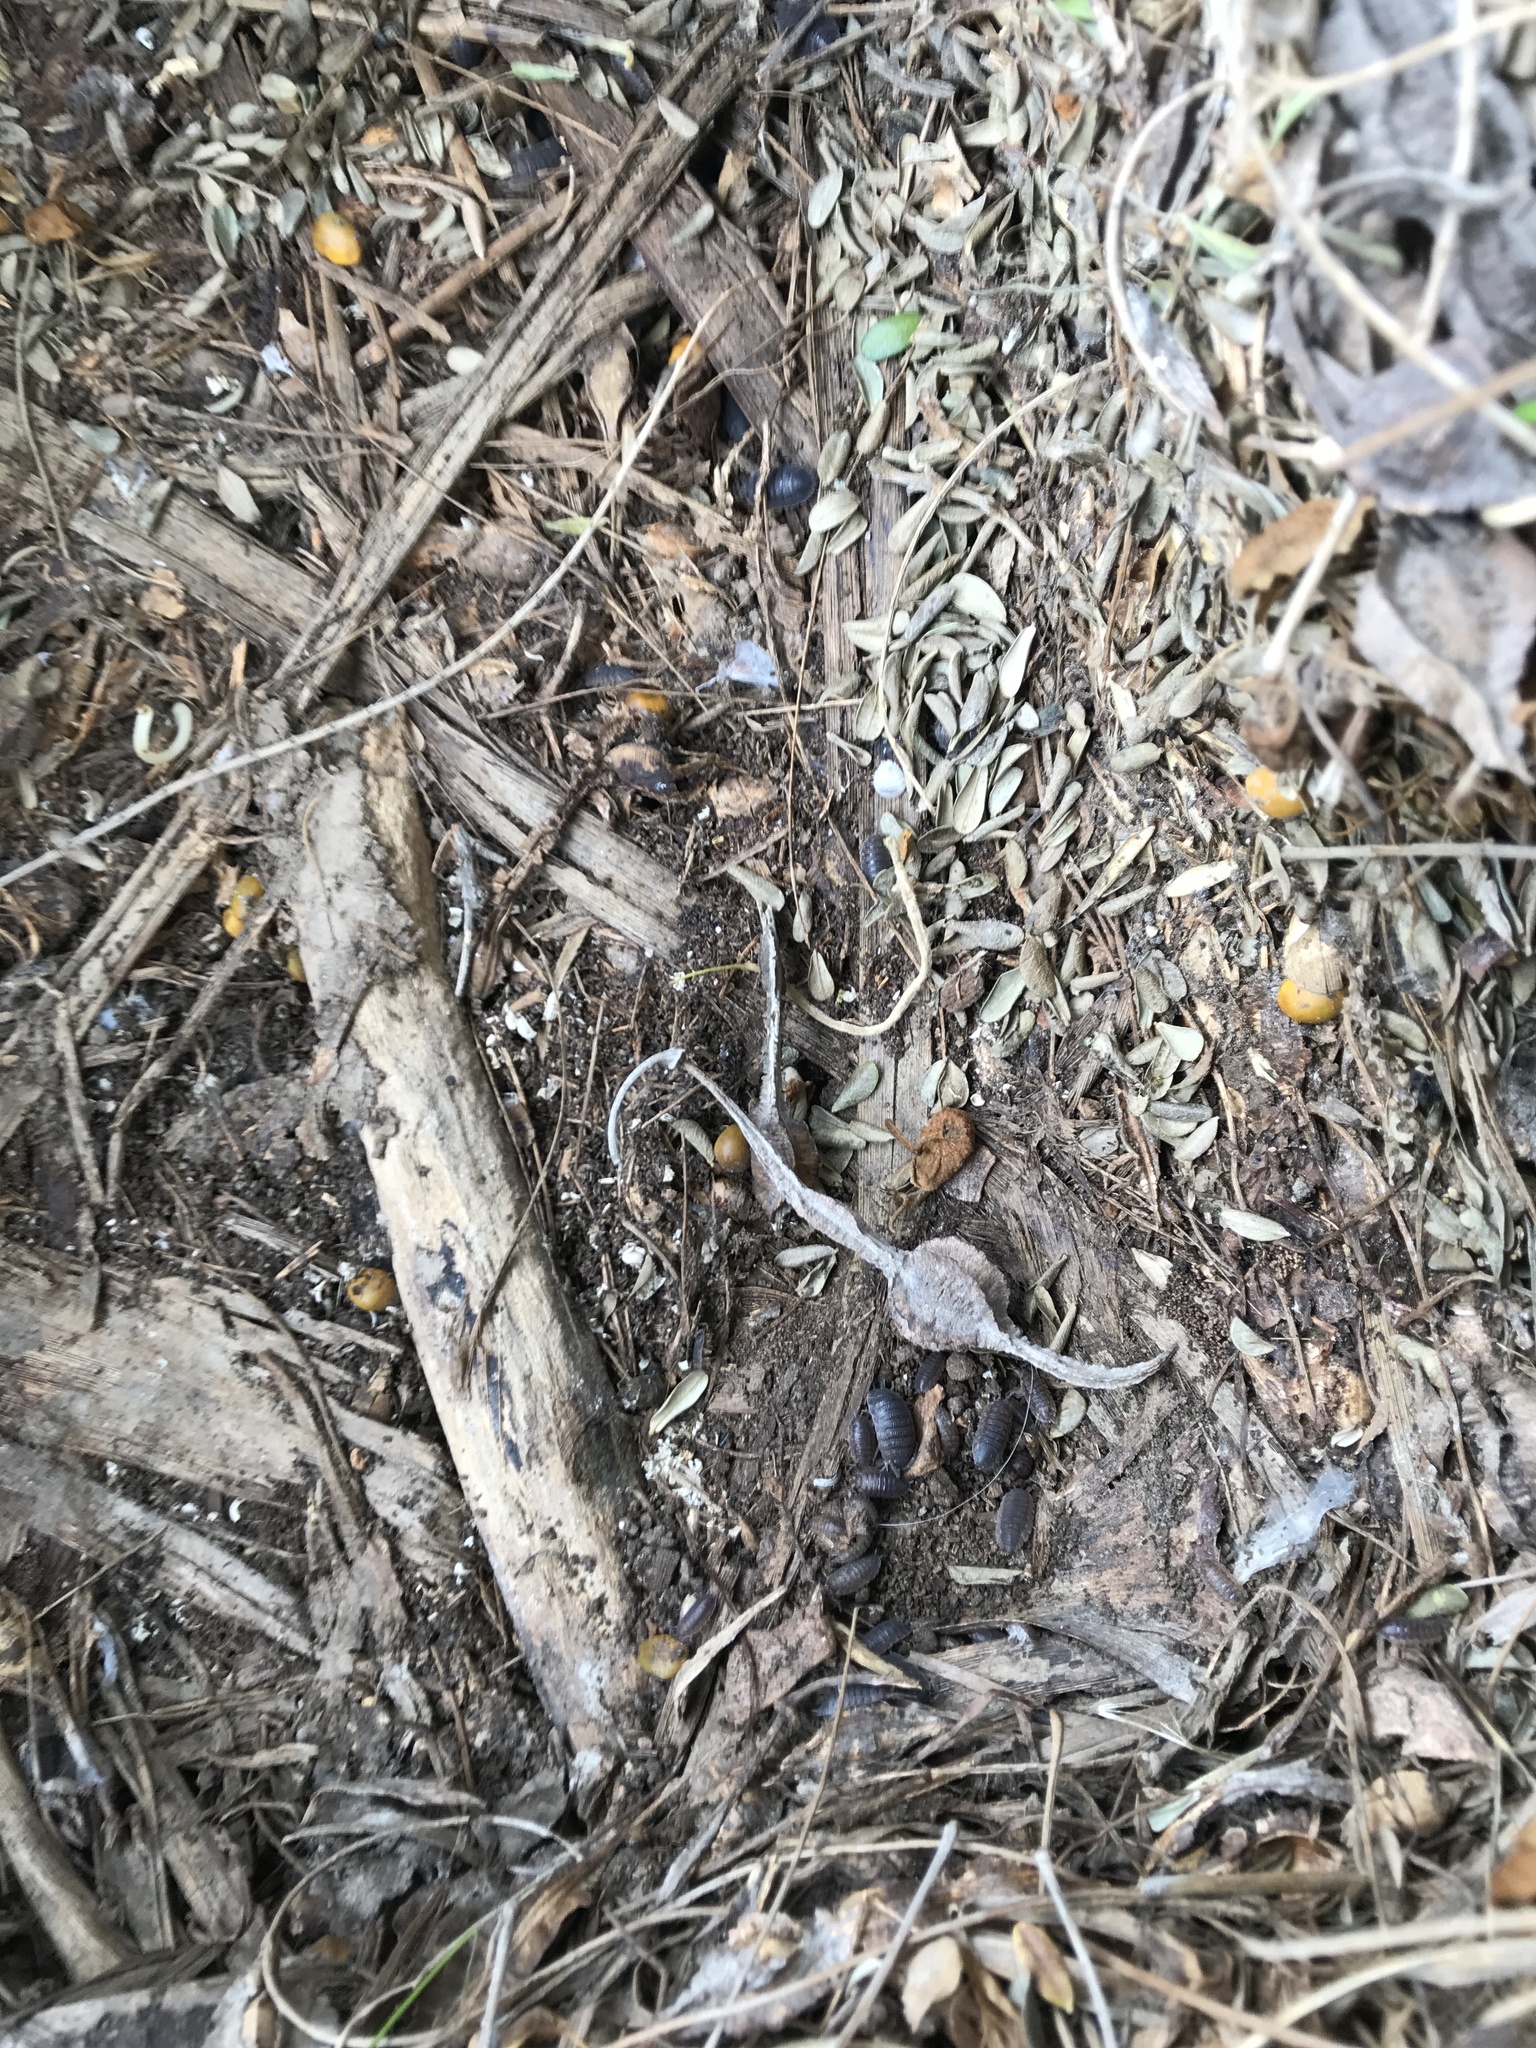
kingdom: Animalia
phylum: Arthropoda
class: Malacostraca
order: Isopoda
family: Porcellionidae
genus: Porcellio
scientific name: Porcellio scaber
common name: Common rough woodlouse
